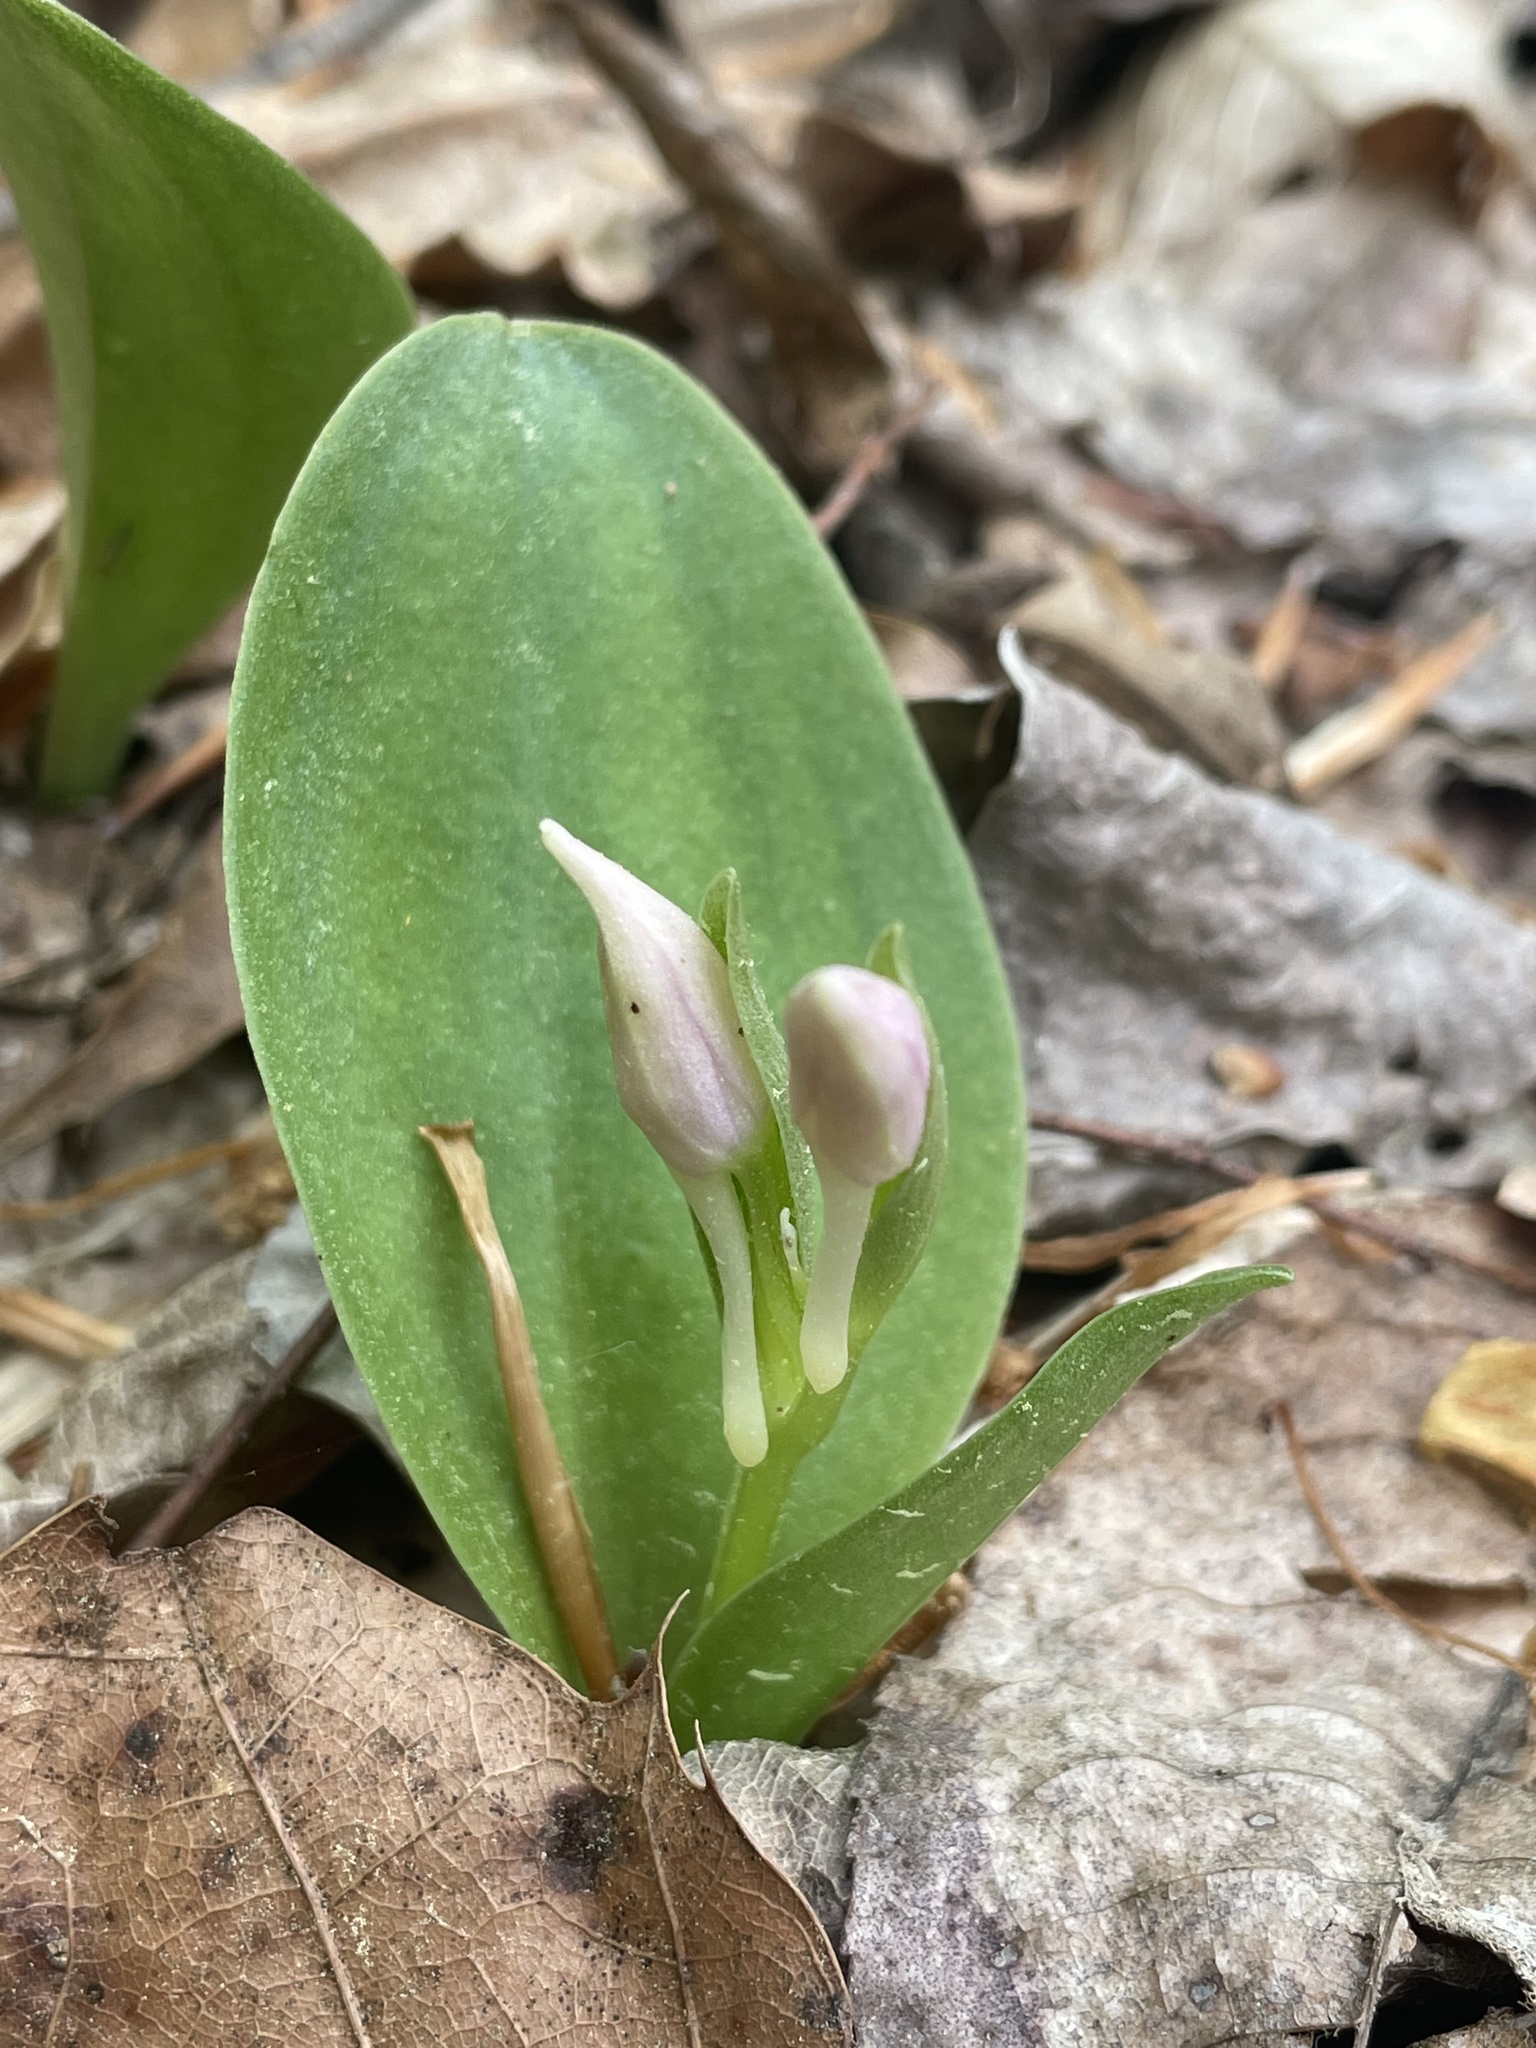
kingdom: Plantae
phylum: Tracheophyta
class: Liliopsida
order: Asparagales
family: Orchidaceae
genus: Galearis
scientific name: Galearis spectabilis
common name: Purple-hooded orchis
